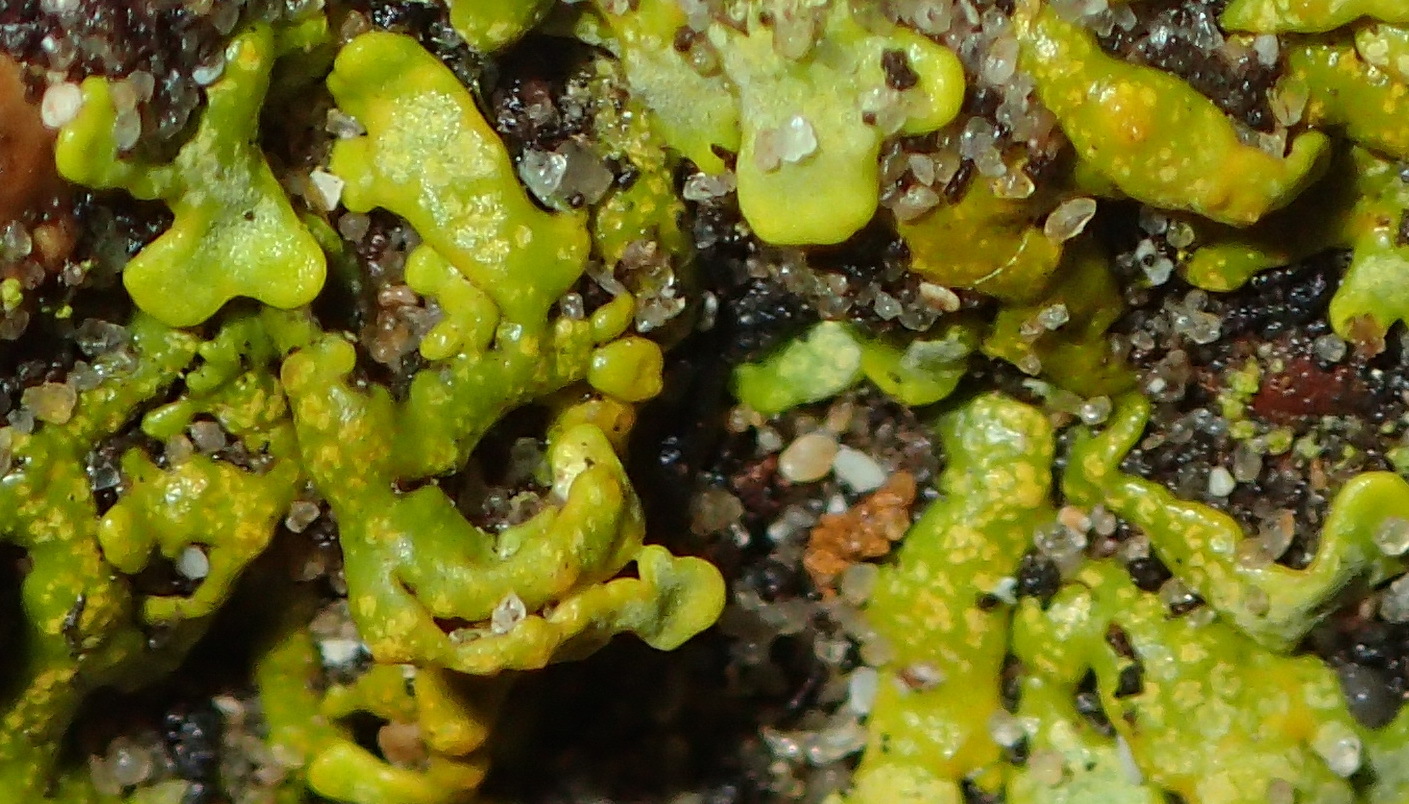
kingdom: Fungi
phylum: Ascomycota
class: Lecanoromycetes
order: Teloschistales
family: Teloschistaceae
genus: Dufourea
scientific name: Dufourea capensis
